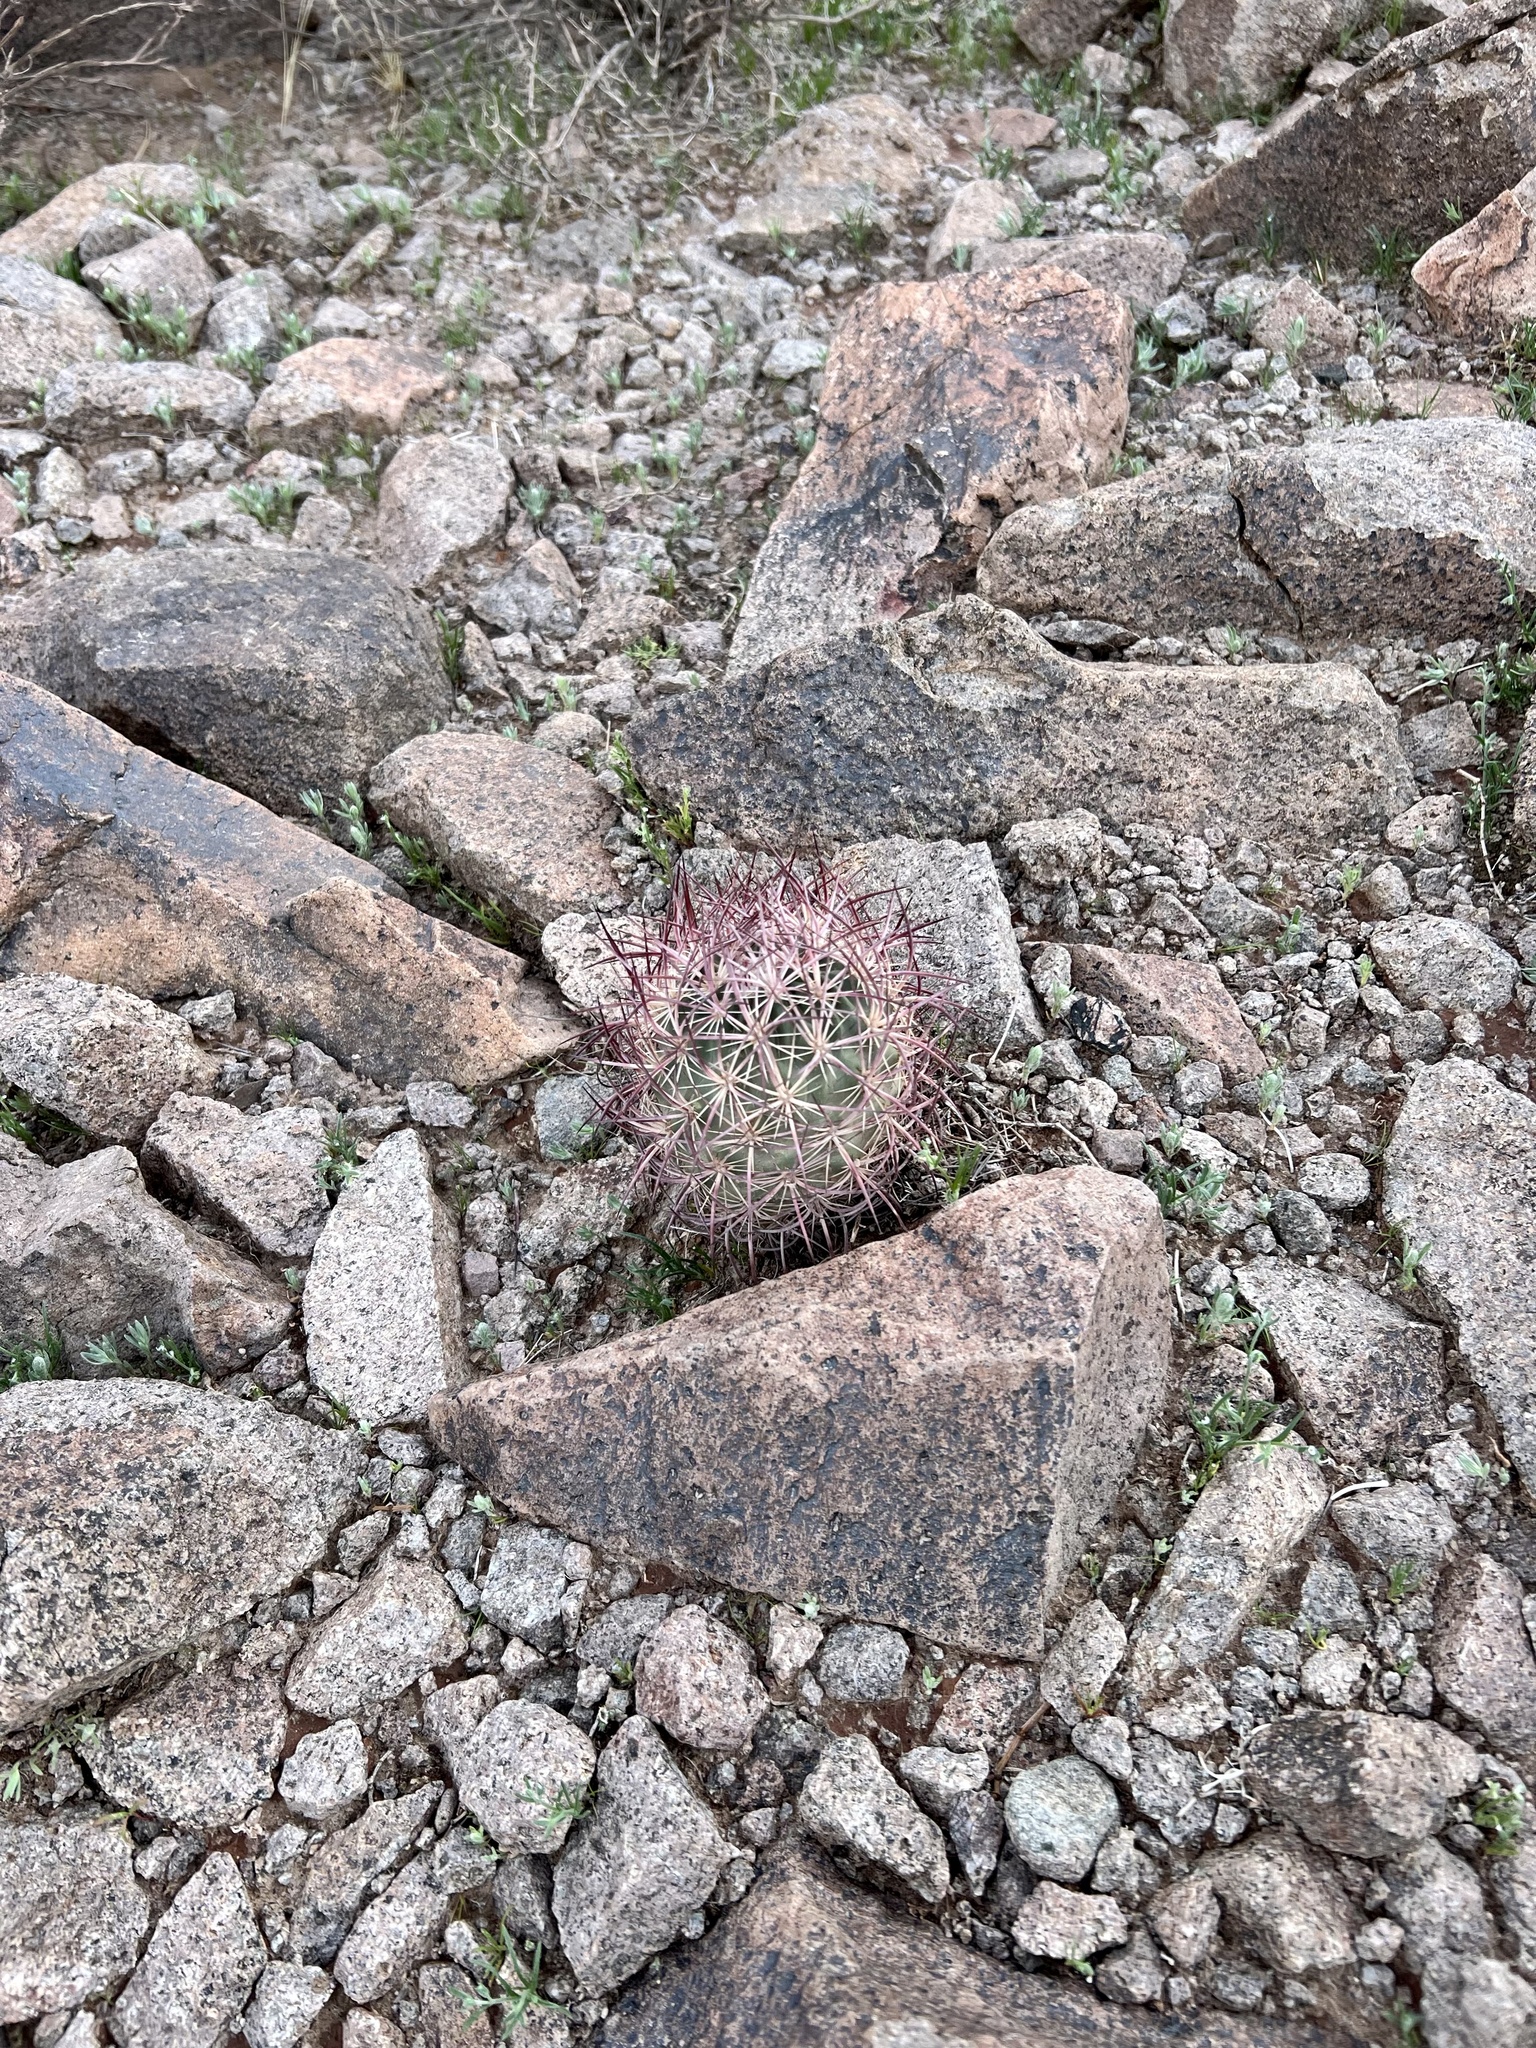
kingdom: Plantae
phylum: Tracheophyta
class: Magnoliopsida
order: Caryophyllales
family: Cactaceae
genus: Sclerocactus
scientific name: Sclerocactus johnsonii
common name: Eight-spine fishhook cactus
